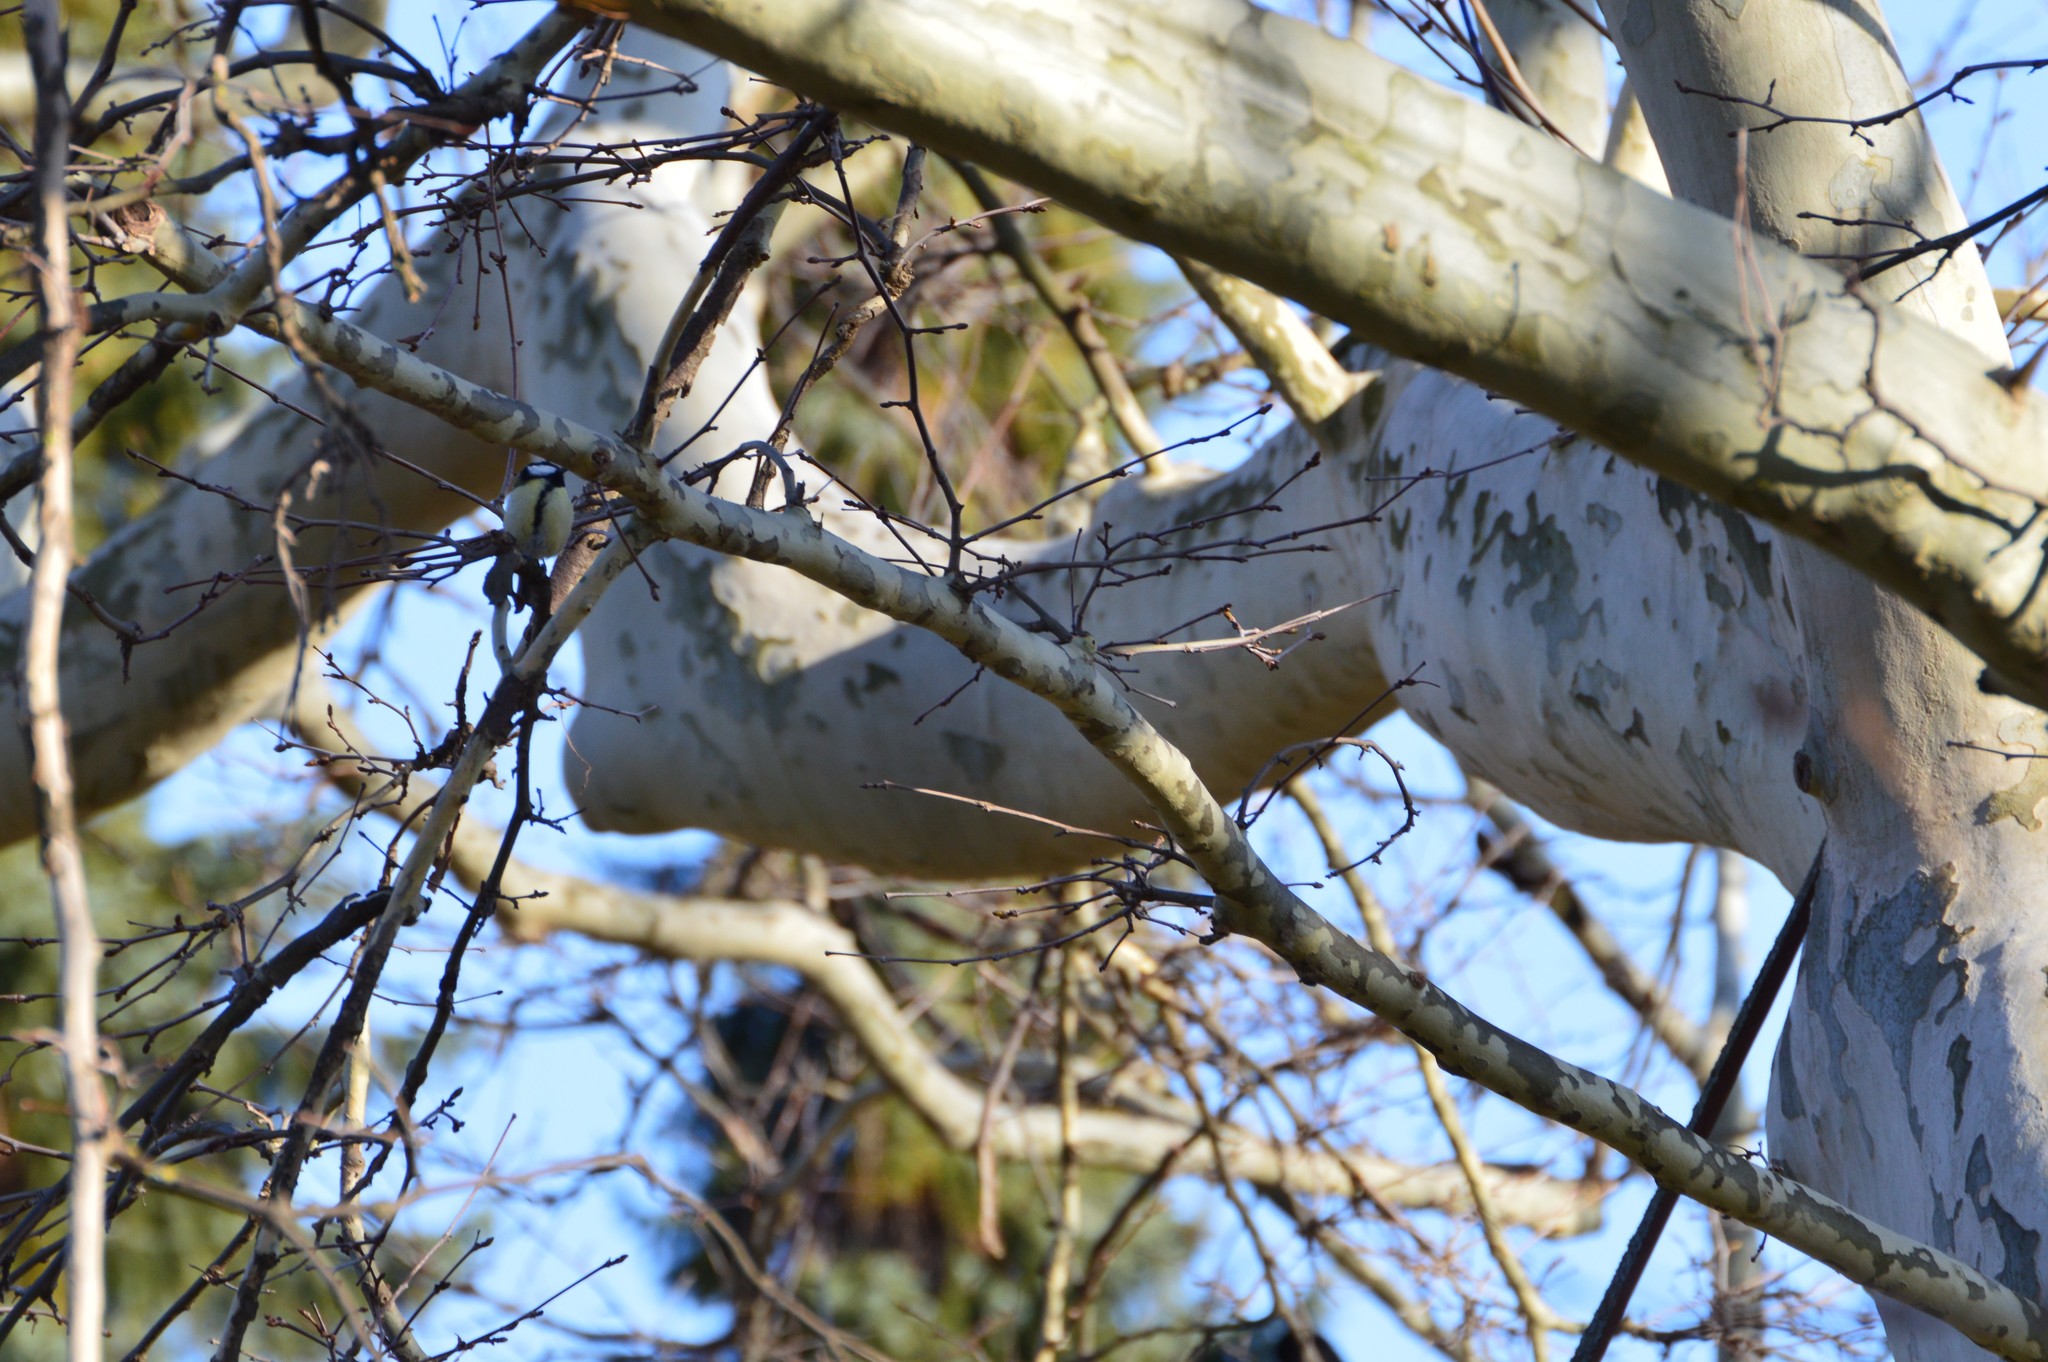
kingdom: Animalia
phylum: Chordata
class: Aves
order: Passeriformes
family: Paridae
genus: Parus
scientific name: Parus major
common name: Great tit
